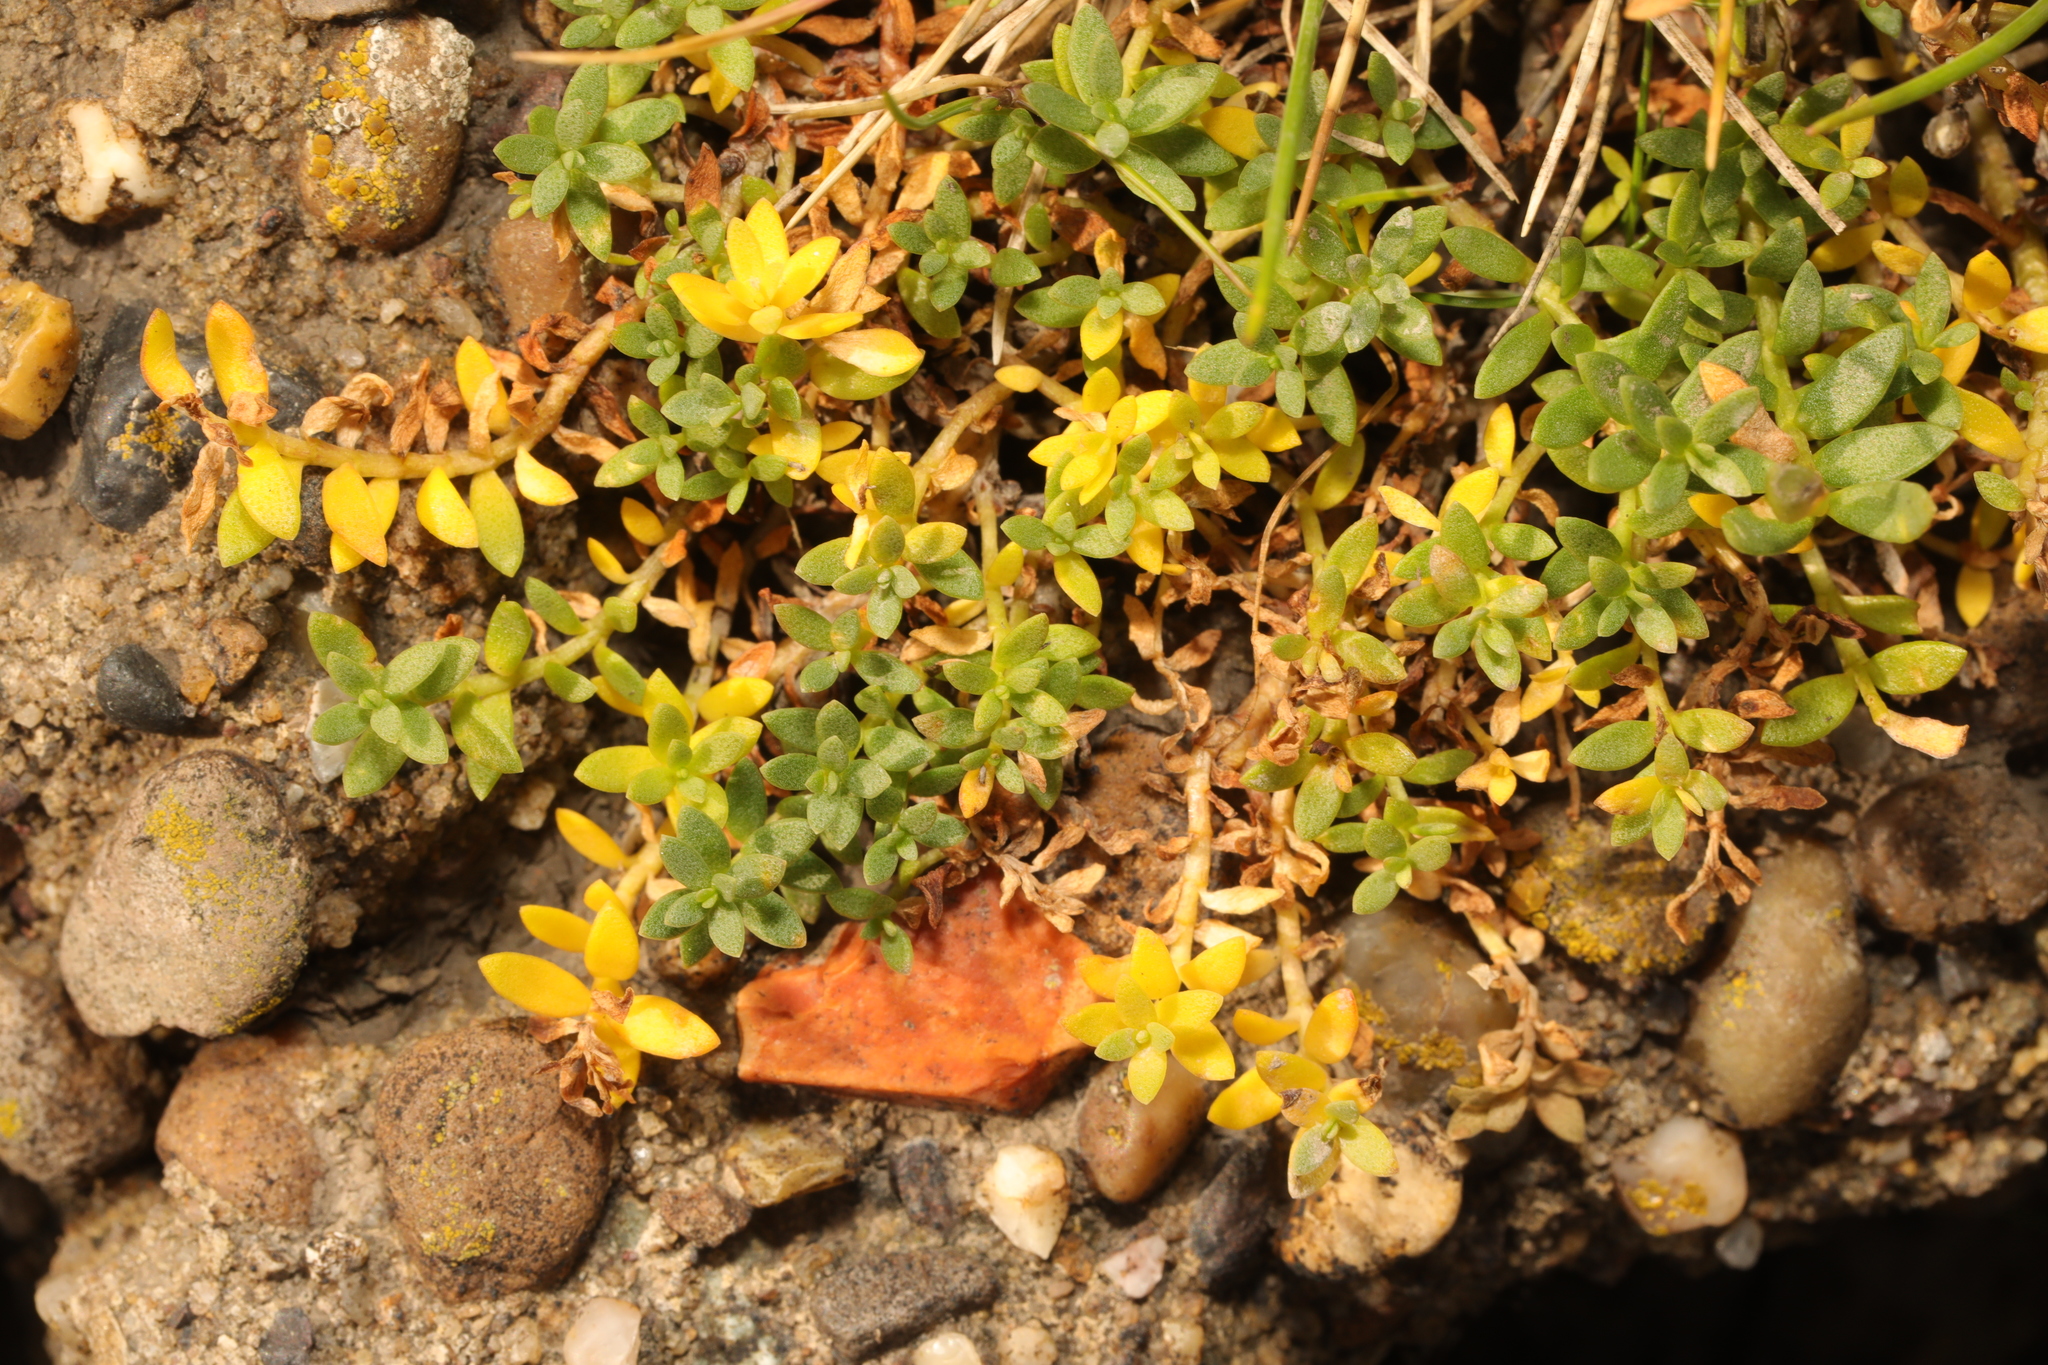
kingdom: Plantae
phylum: Tracheophyta
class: Magnoliopsida
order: Ericales
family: Primulaceae
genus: Lysimachia
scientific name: Lysimachia maritima
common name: Sea milkwort
